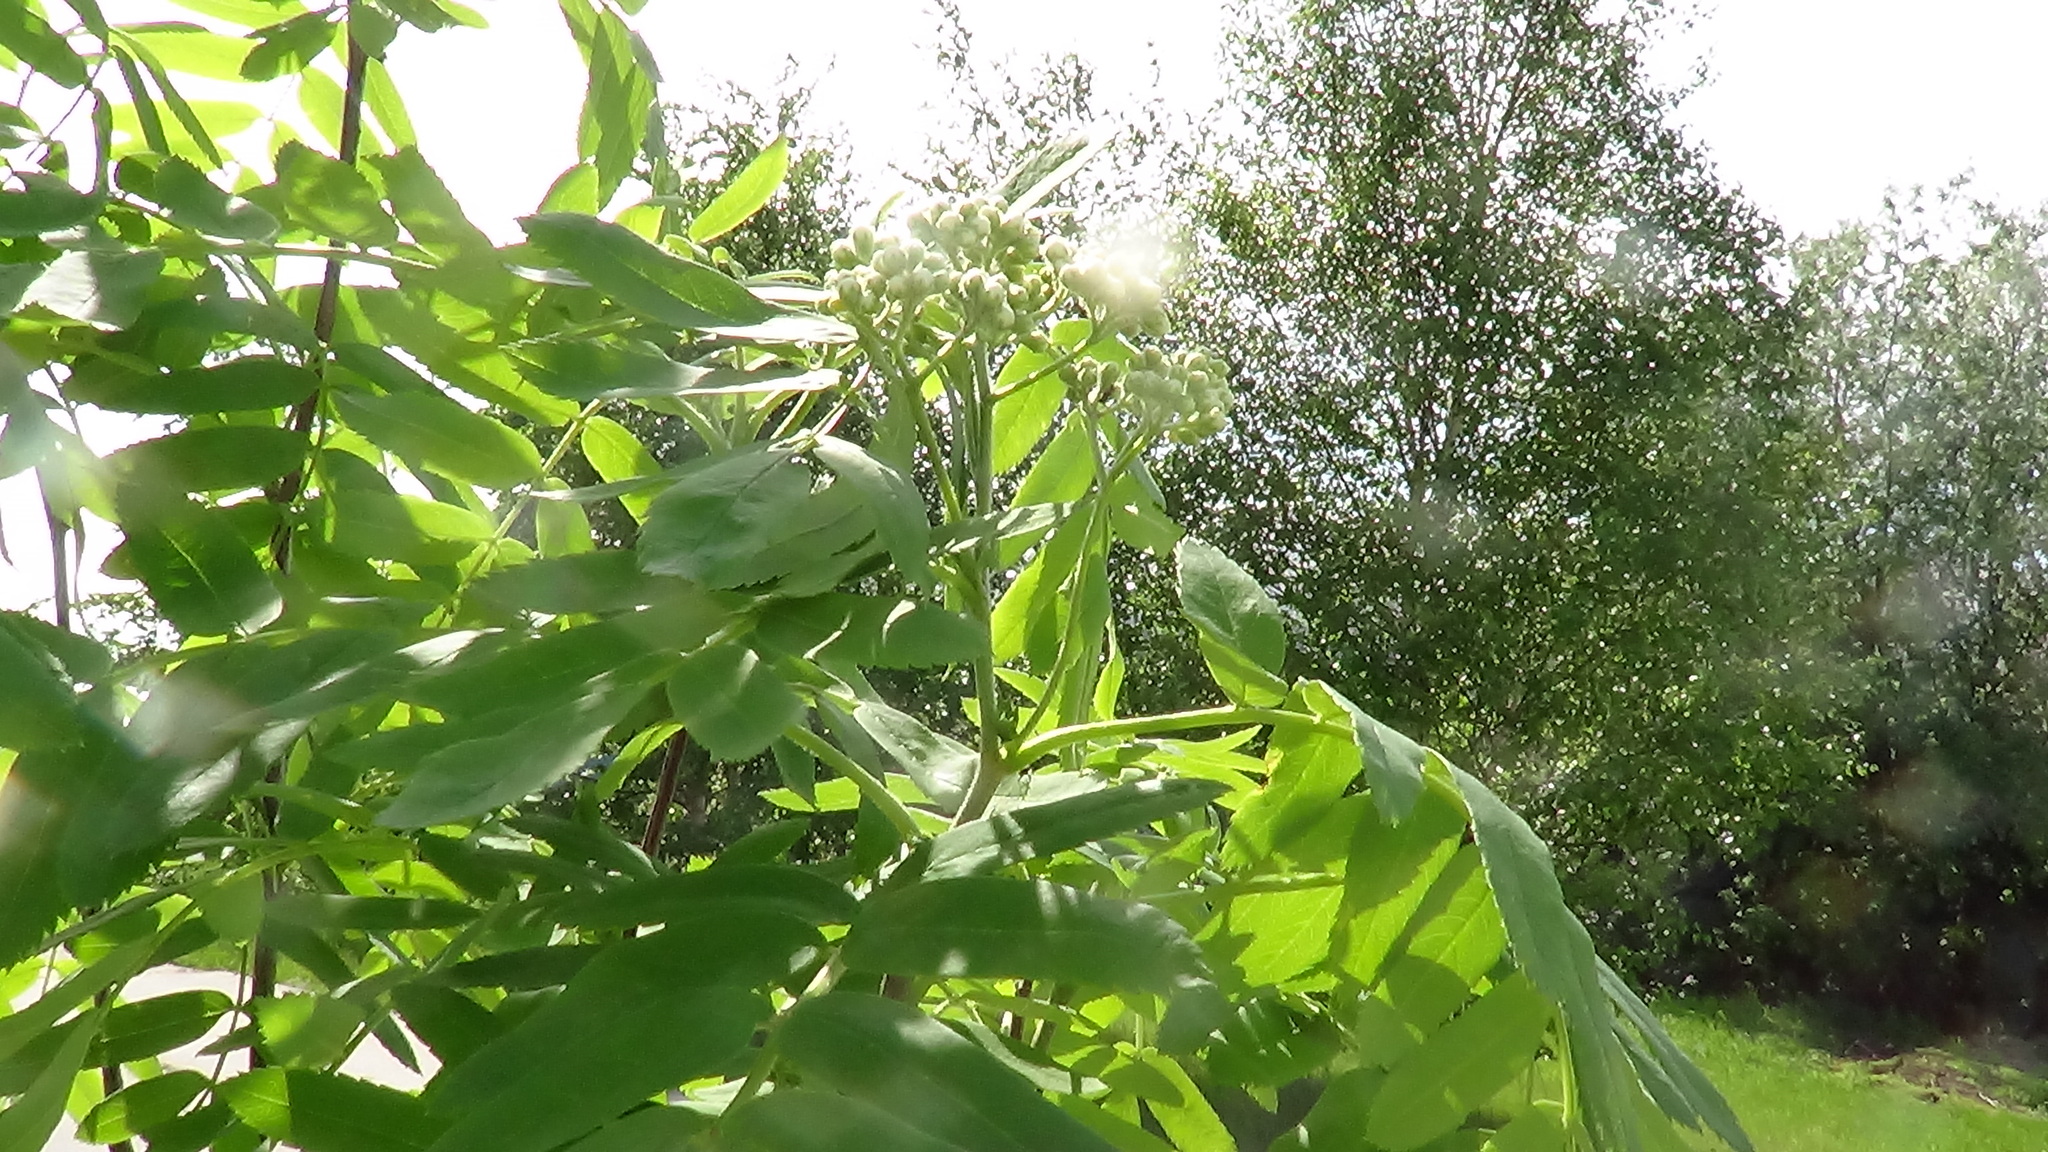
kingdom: Plantae
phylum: Tracheophyta
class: Magnoliopsida
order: Rosales
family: Rosaceae
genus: Sorbus
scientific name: Sorbus aucuparia
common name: Rowan
